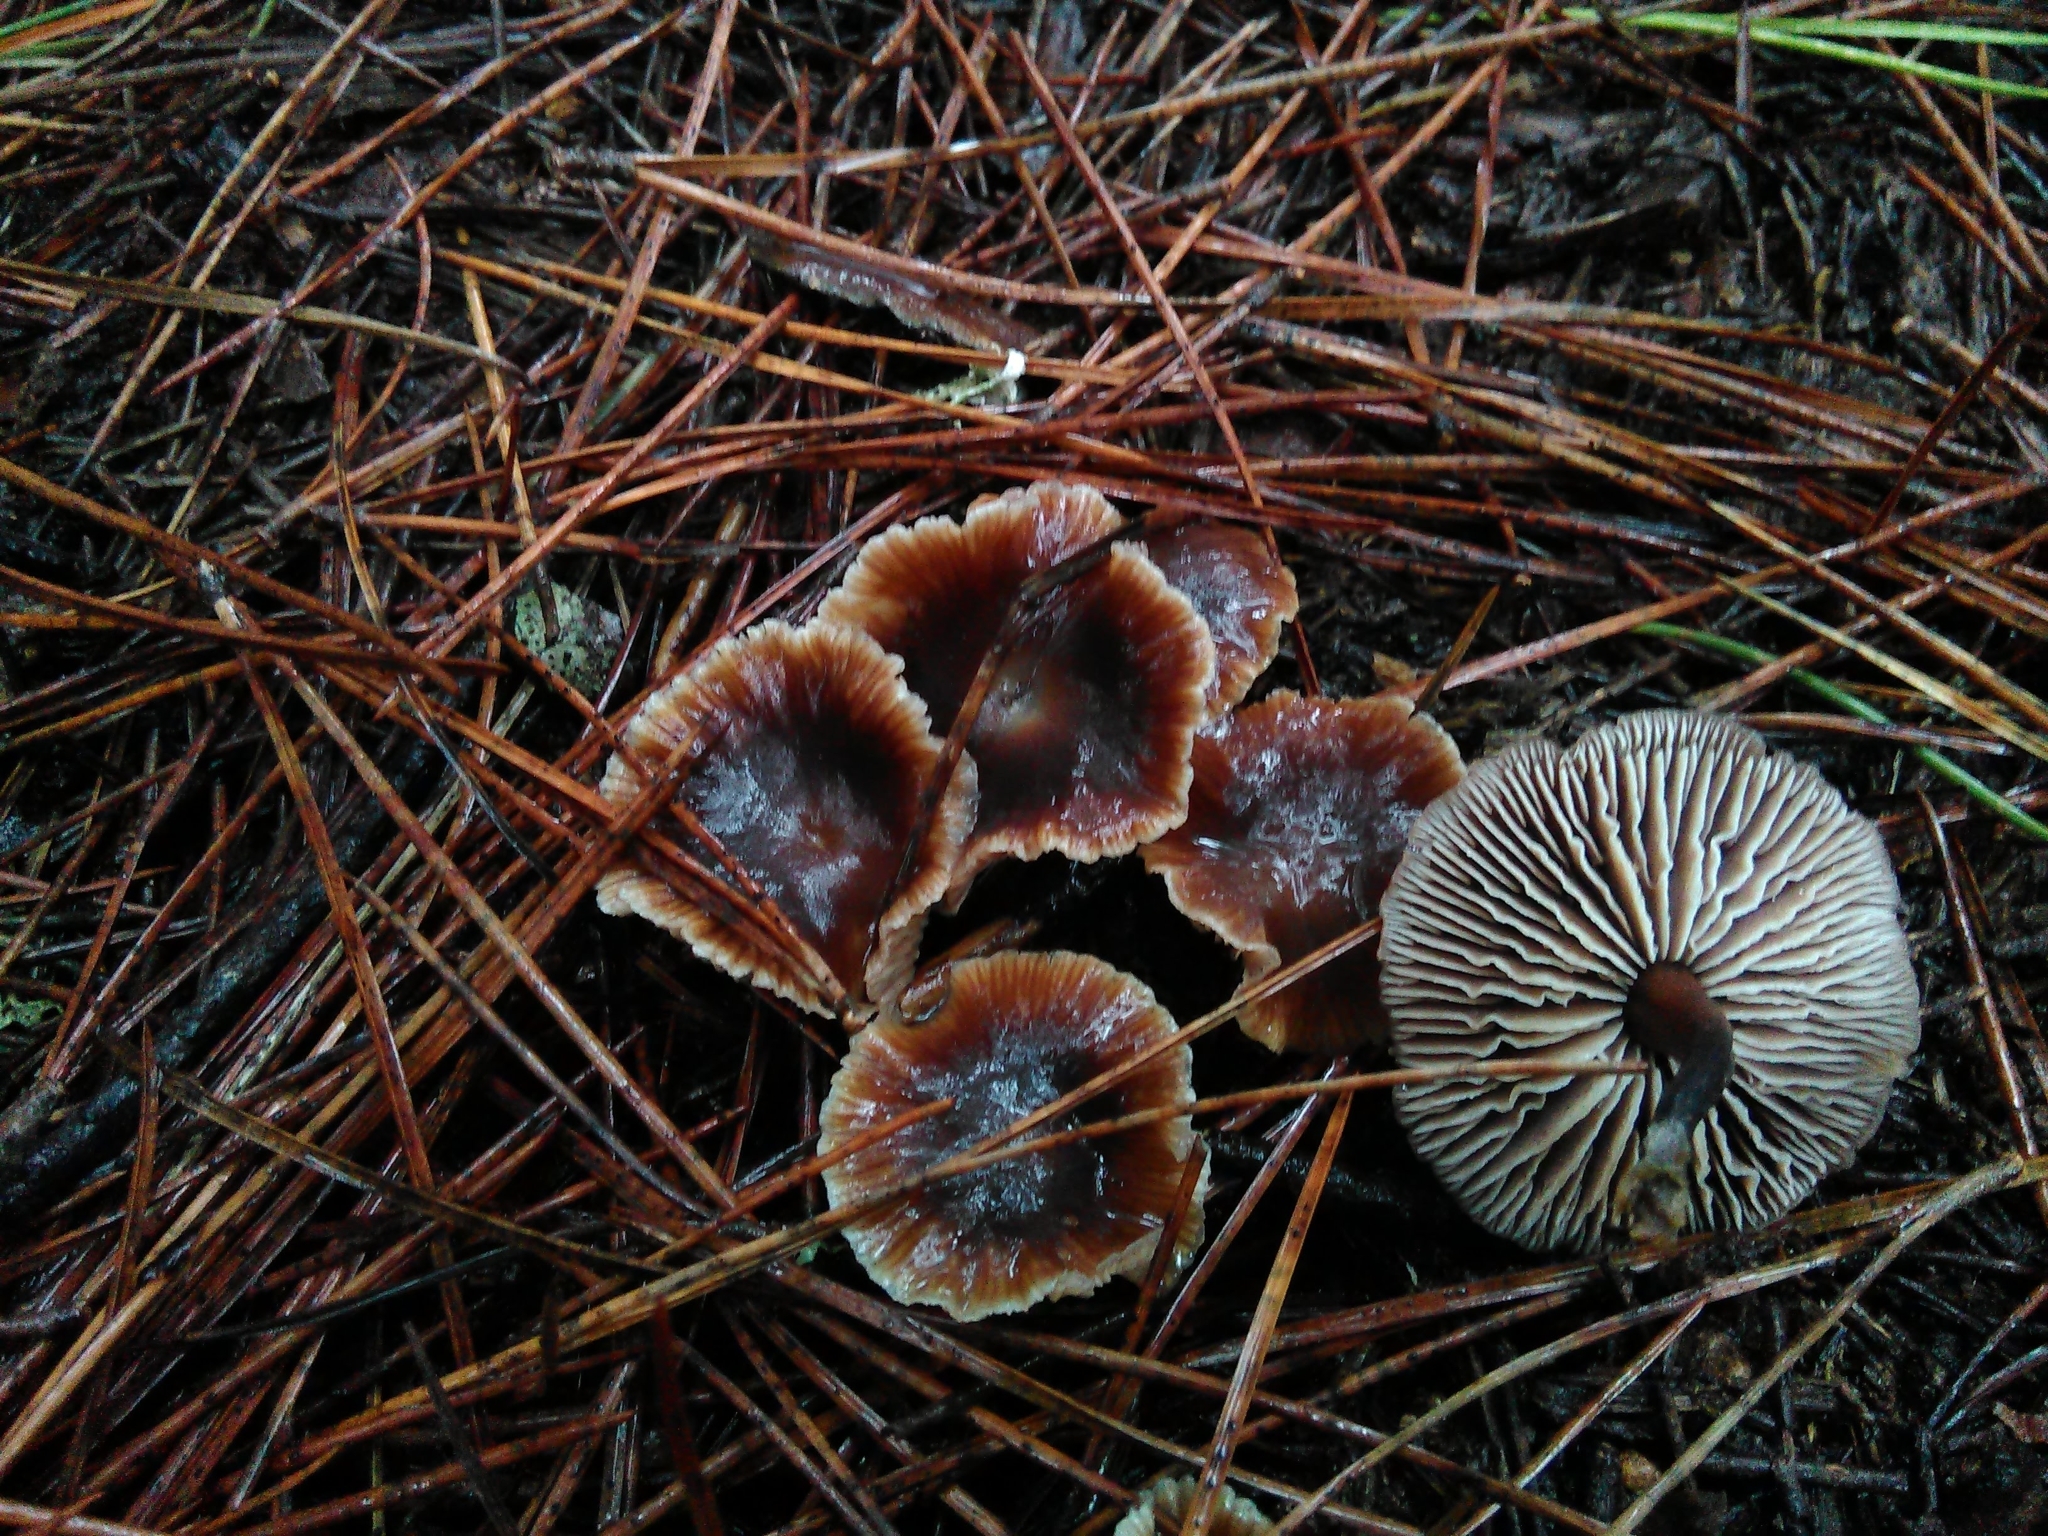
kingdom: Fungi
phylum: Basidiomycota
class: Agaricomycetes
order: Agaricales
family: Omphalotaceae
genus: Gymnopus
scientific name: Gymnopus brassicolens
